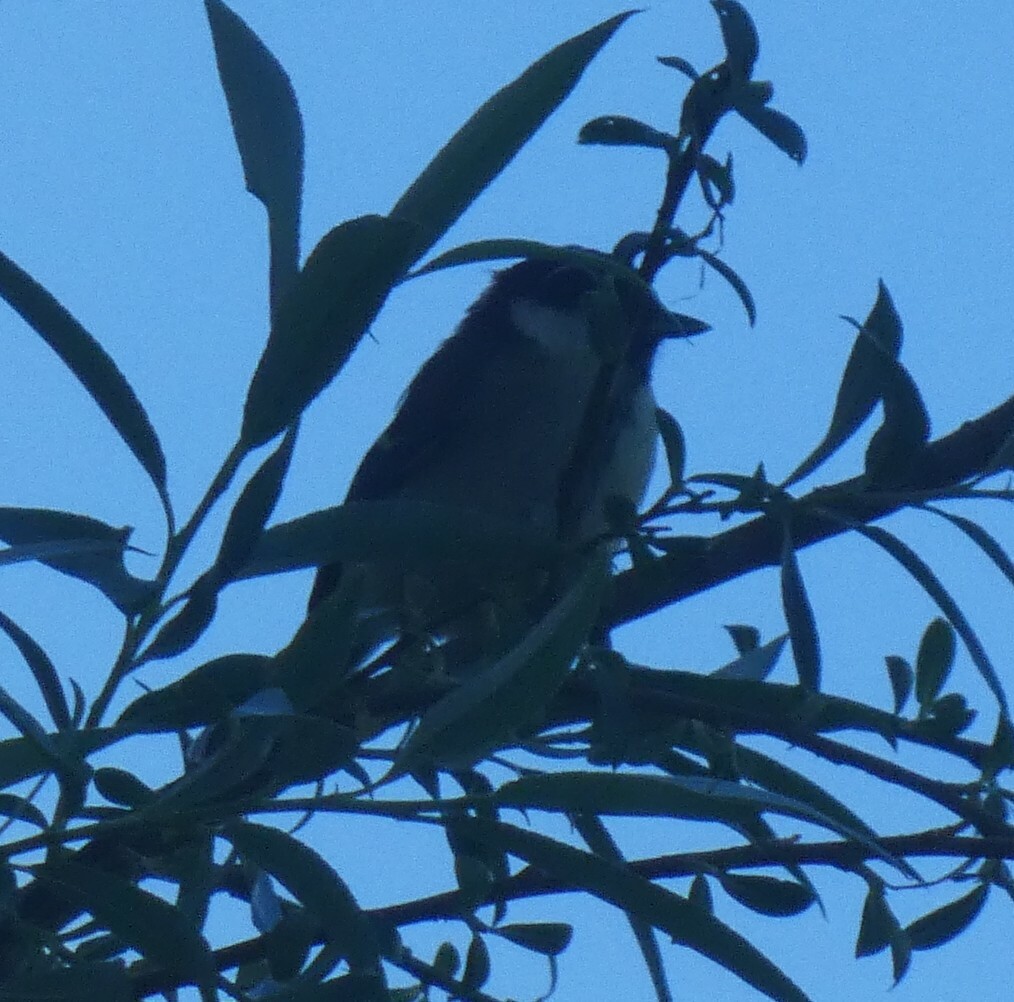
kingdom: Animalia
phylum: Chordata
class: Aves
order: Passeriformes
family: Paridae
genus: Parus
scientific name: Parus major
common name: Great tit
